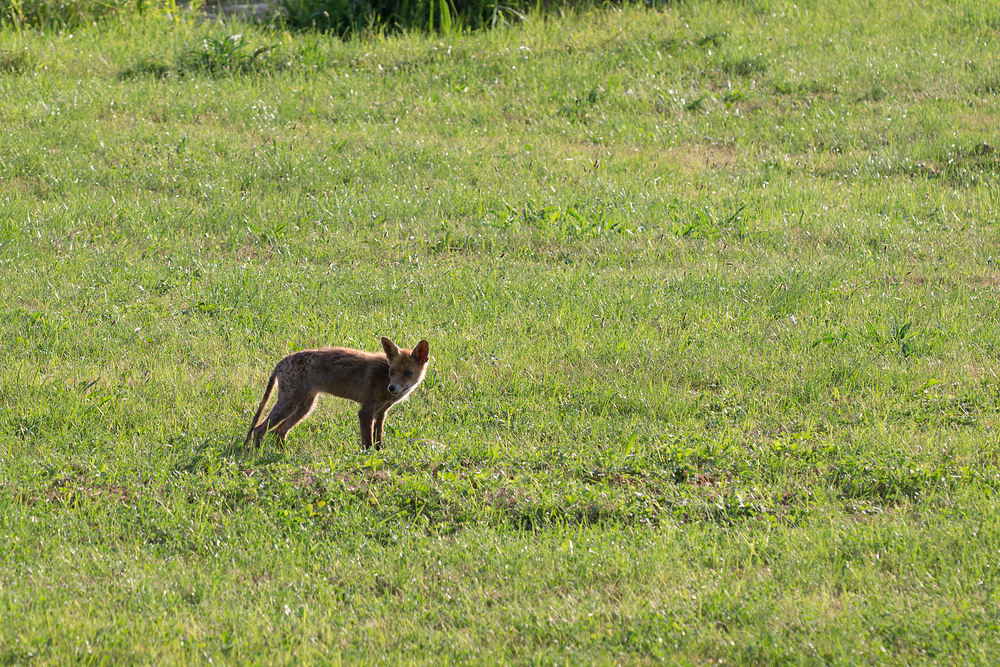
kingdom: Animalia
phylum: Chordata
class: Mammalia
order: Carnivora
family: Canidae
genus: Vulpes
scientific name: Vulpes vulpes
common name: Red fox
